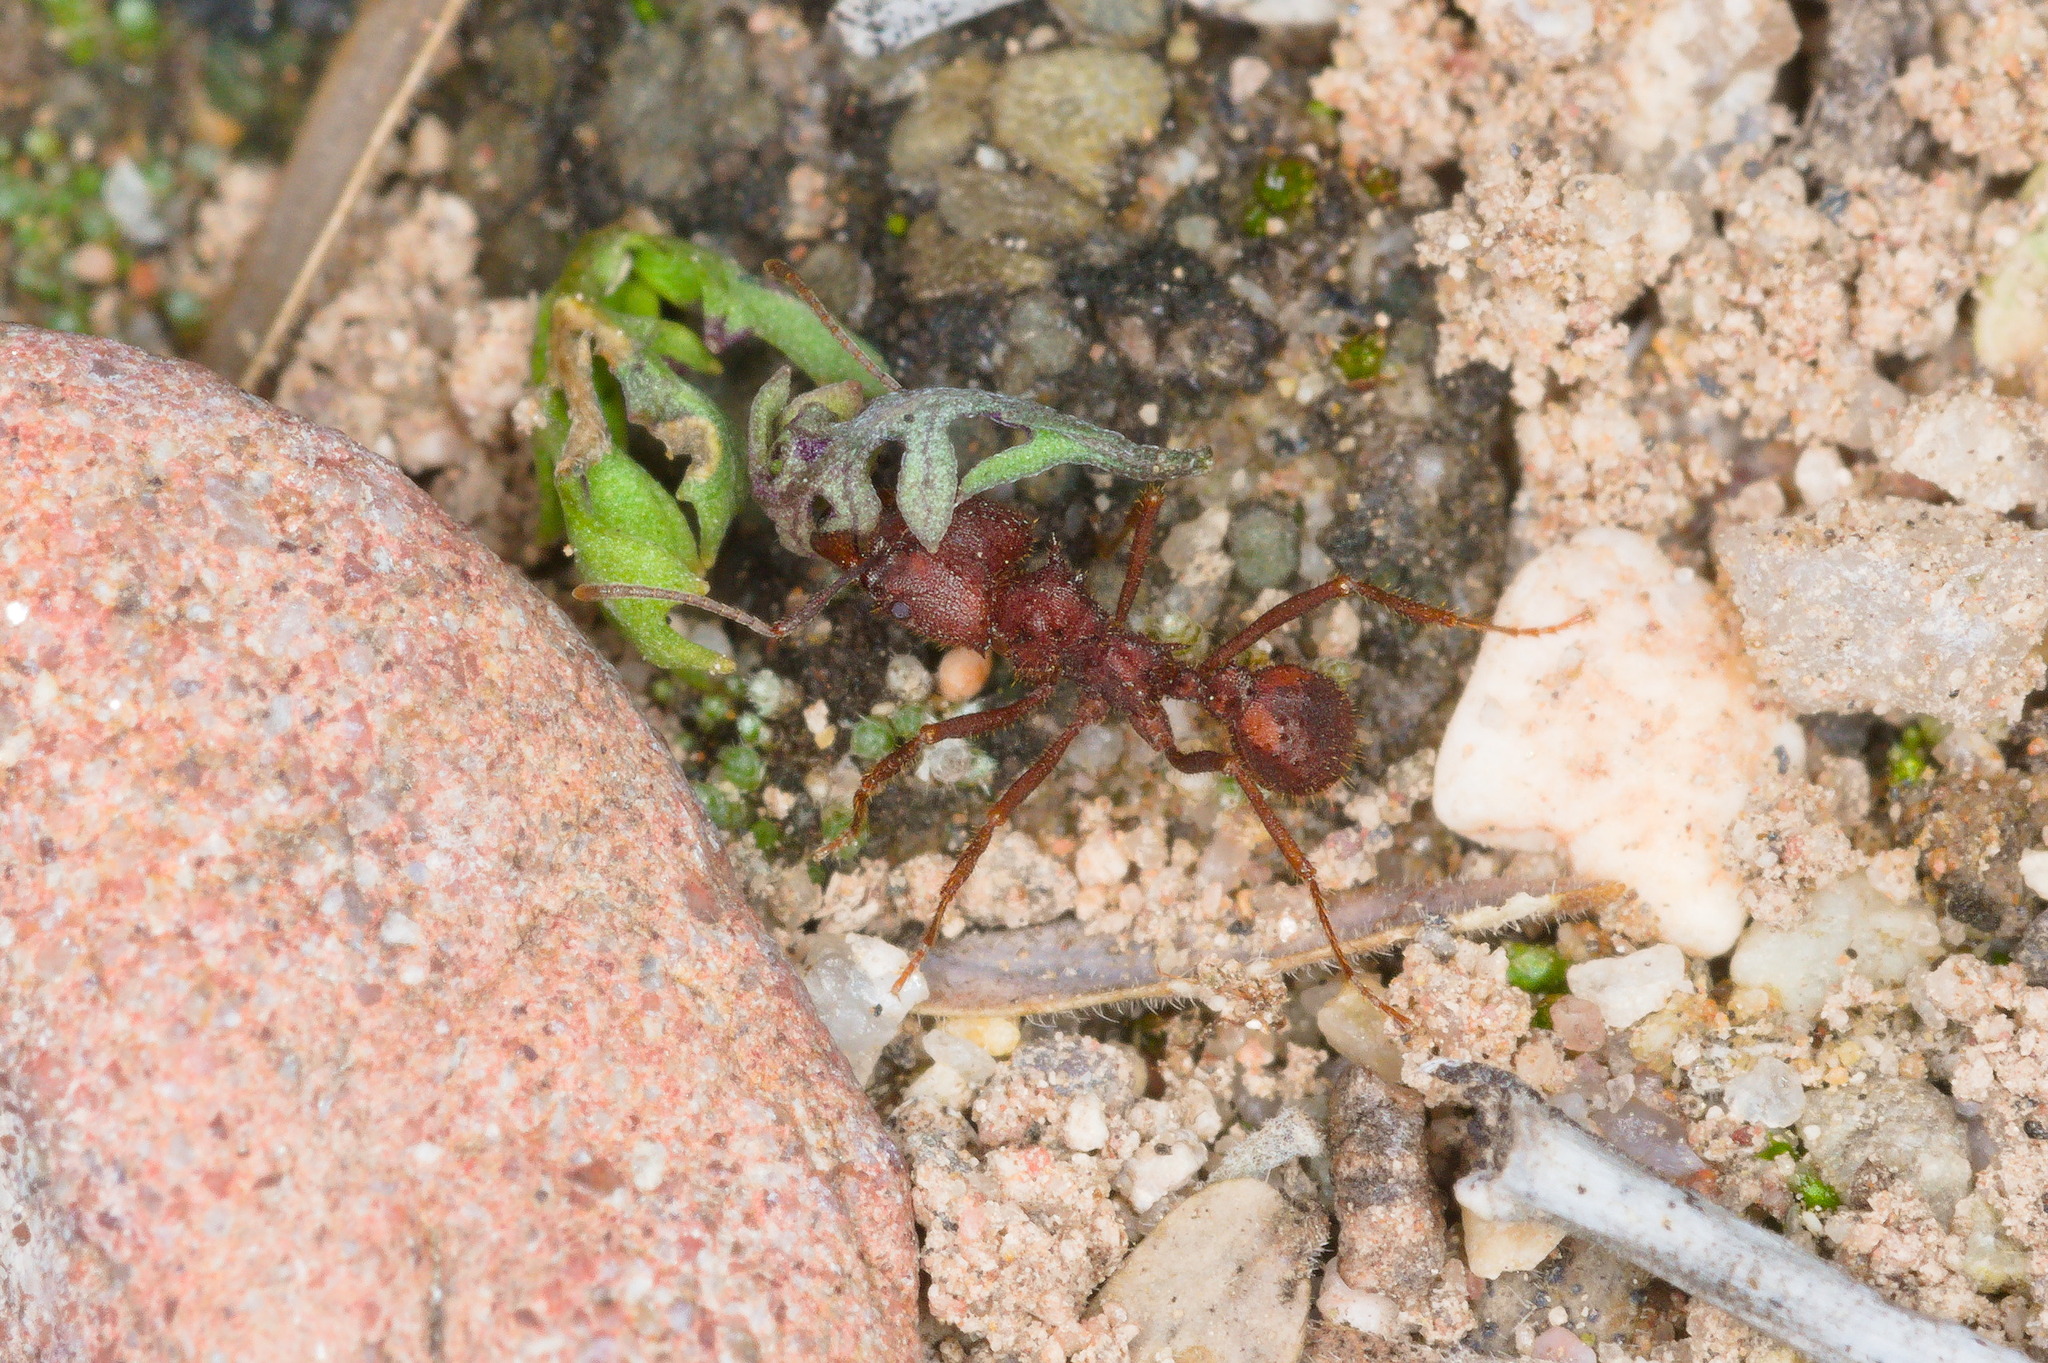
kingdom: Animalia
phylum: Arthropoda
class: Insecta
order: Hymenoptera
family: Formicidae
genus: Acromyrmex
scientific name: Acromyrmex versicolor
